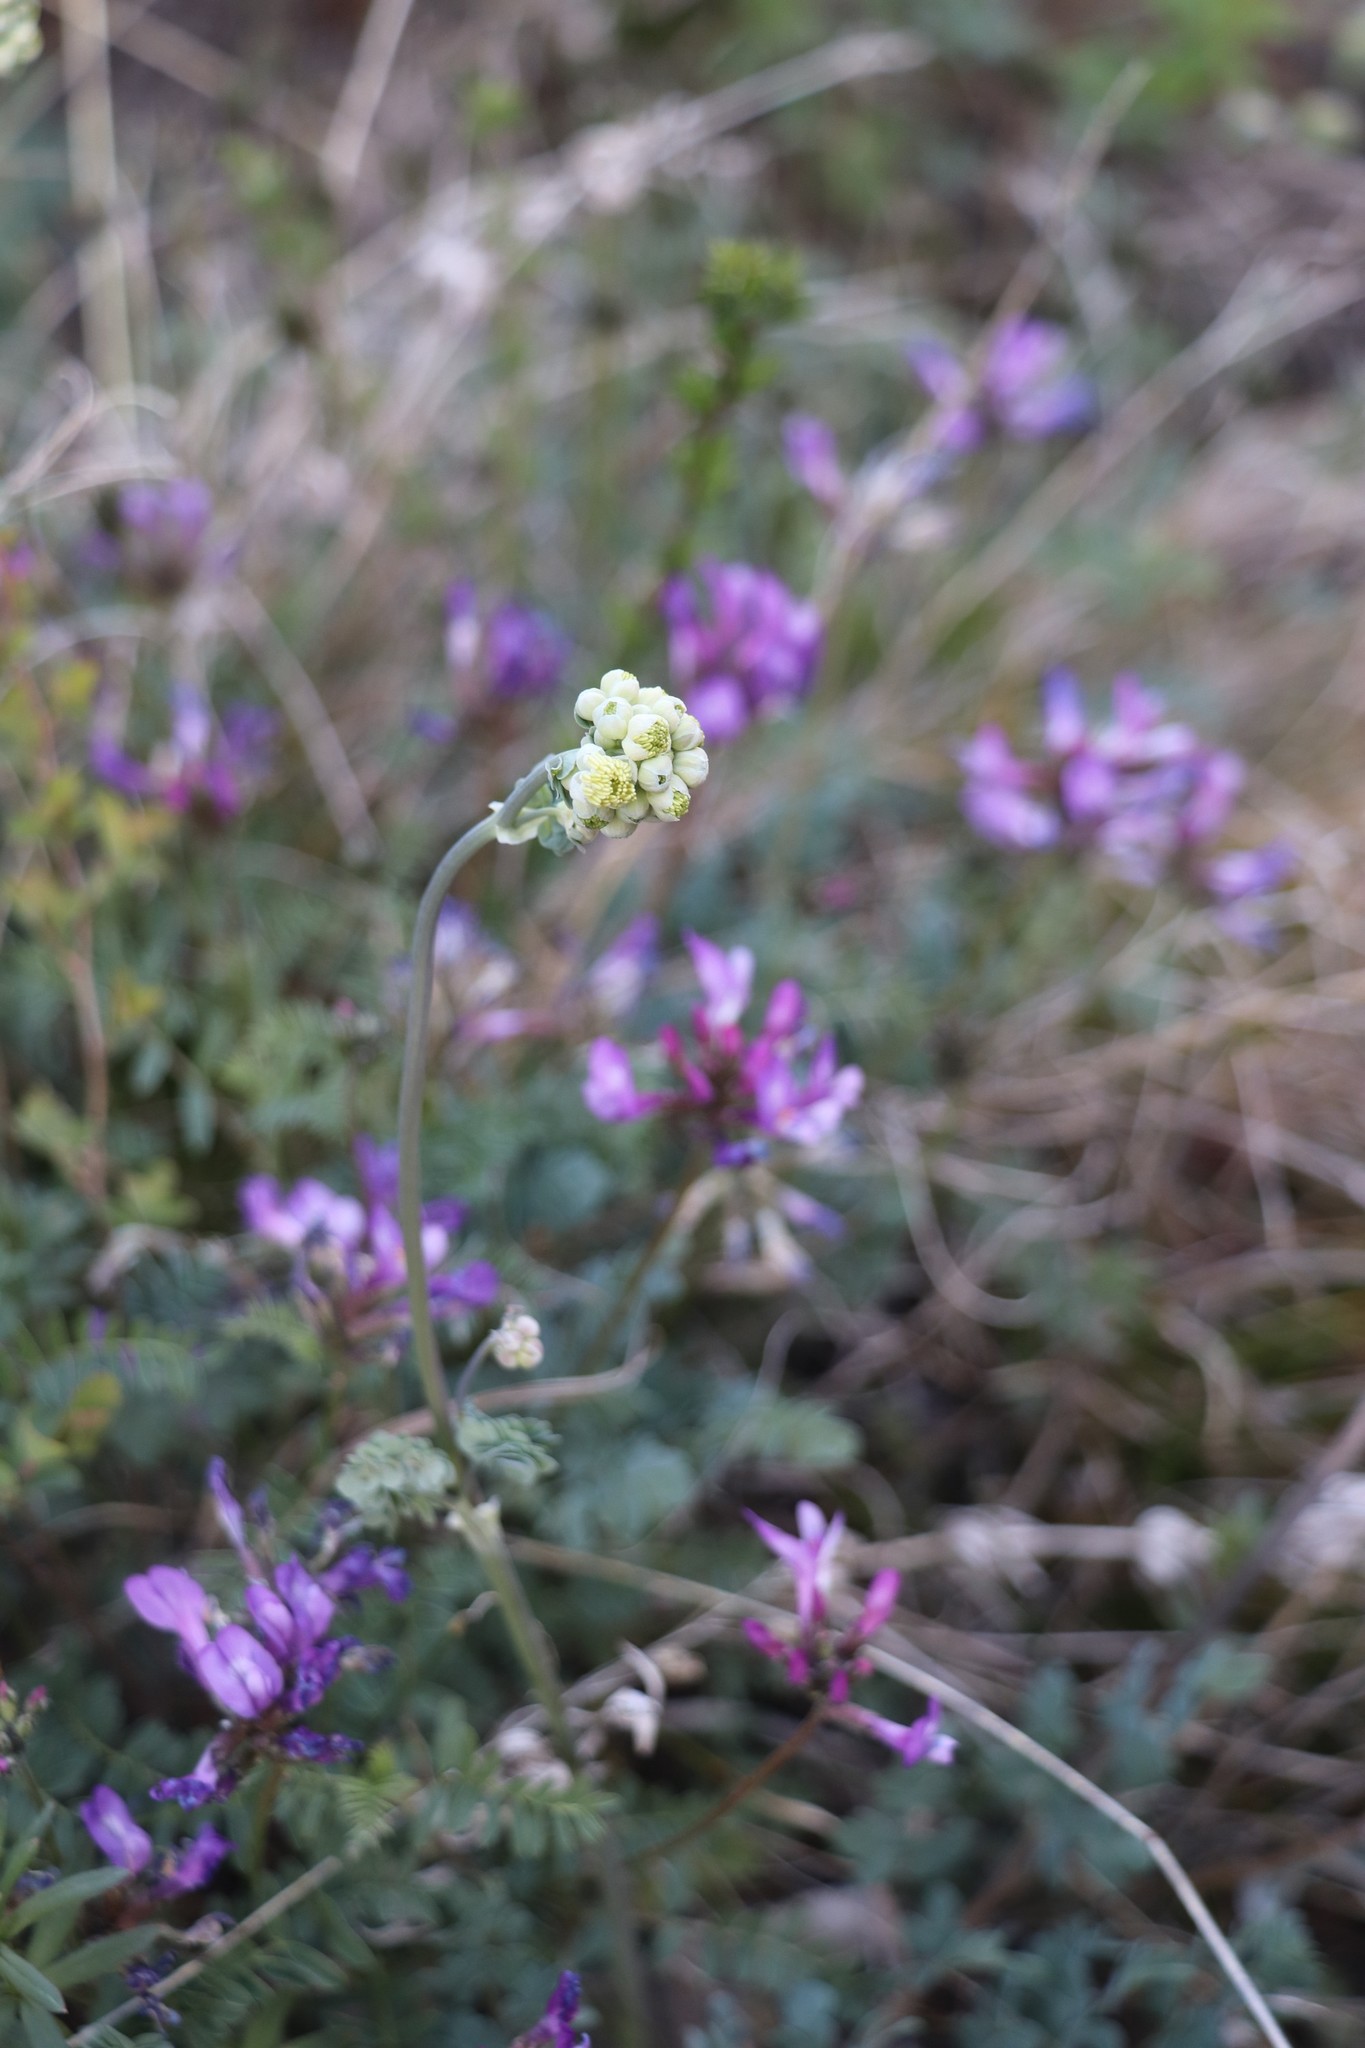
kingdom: Plantae
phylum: Tracheophyta
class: Magnoliopsida
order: Ranunculales
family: Ranunculaceae
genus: Thalictrum
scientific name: Thalictrum petaloideum
